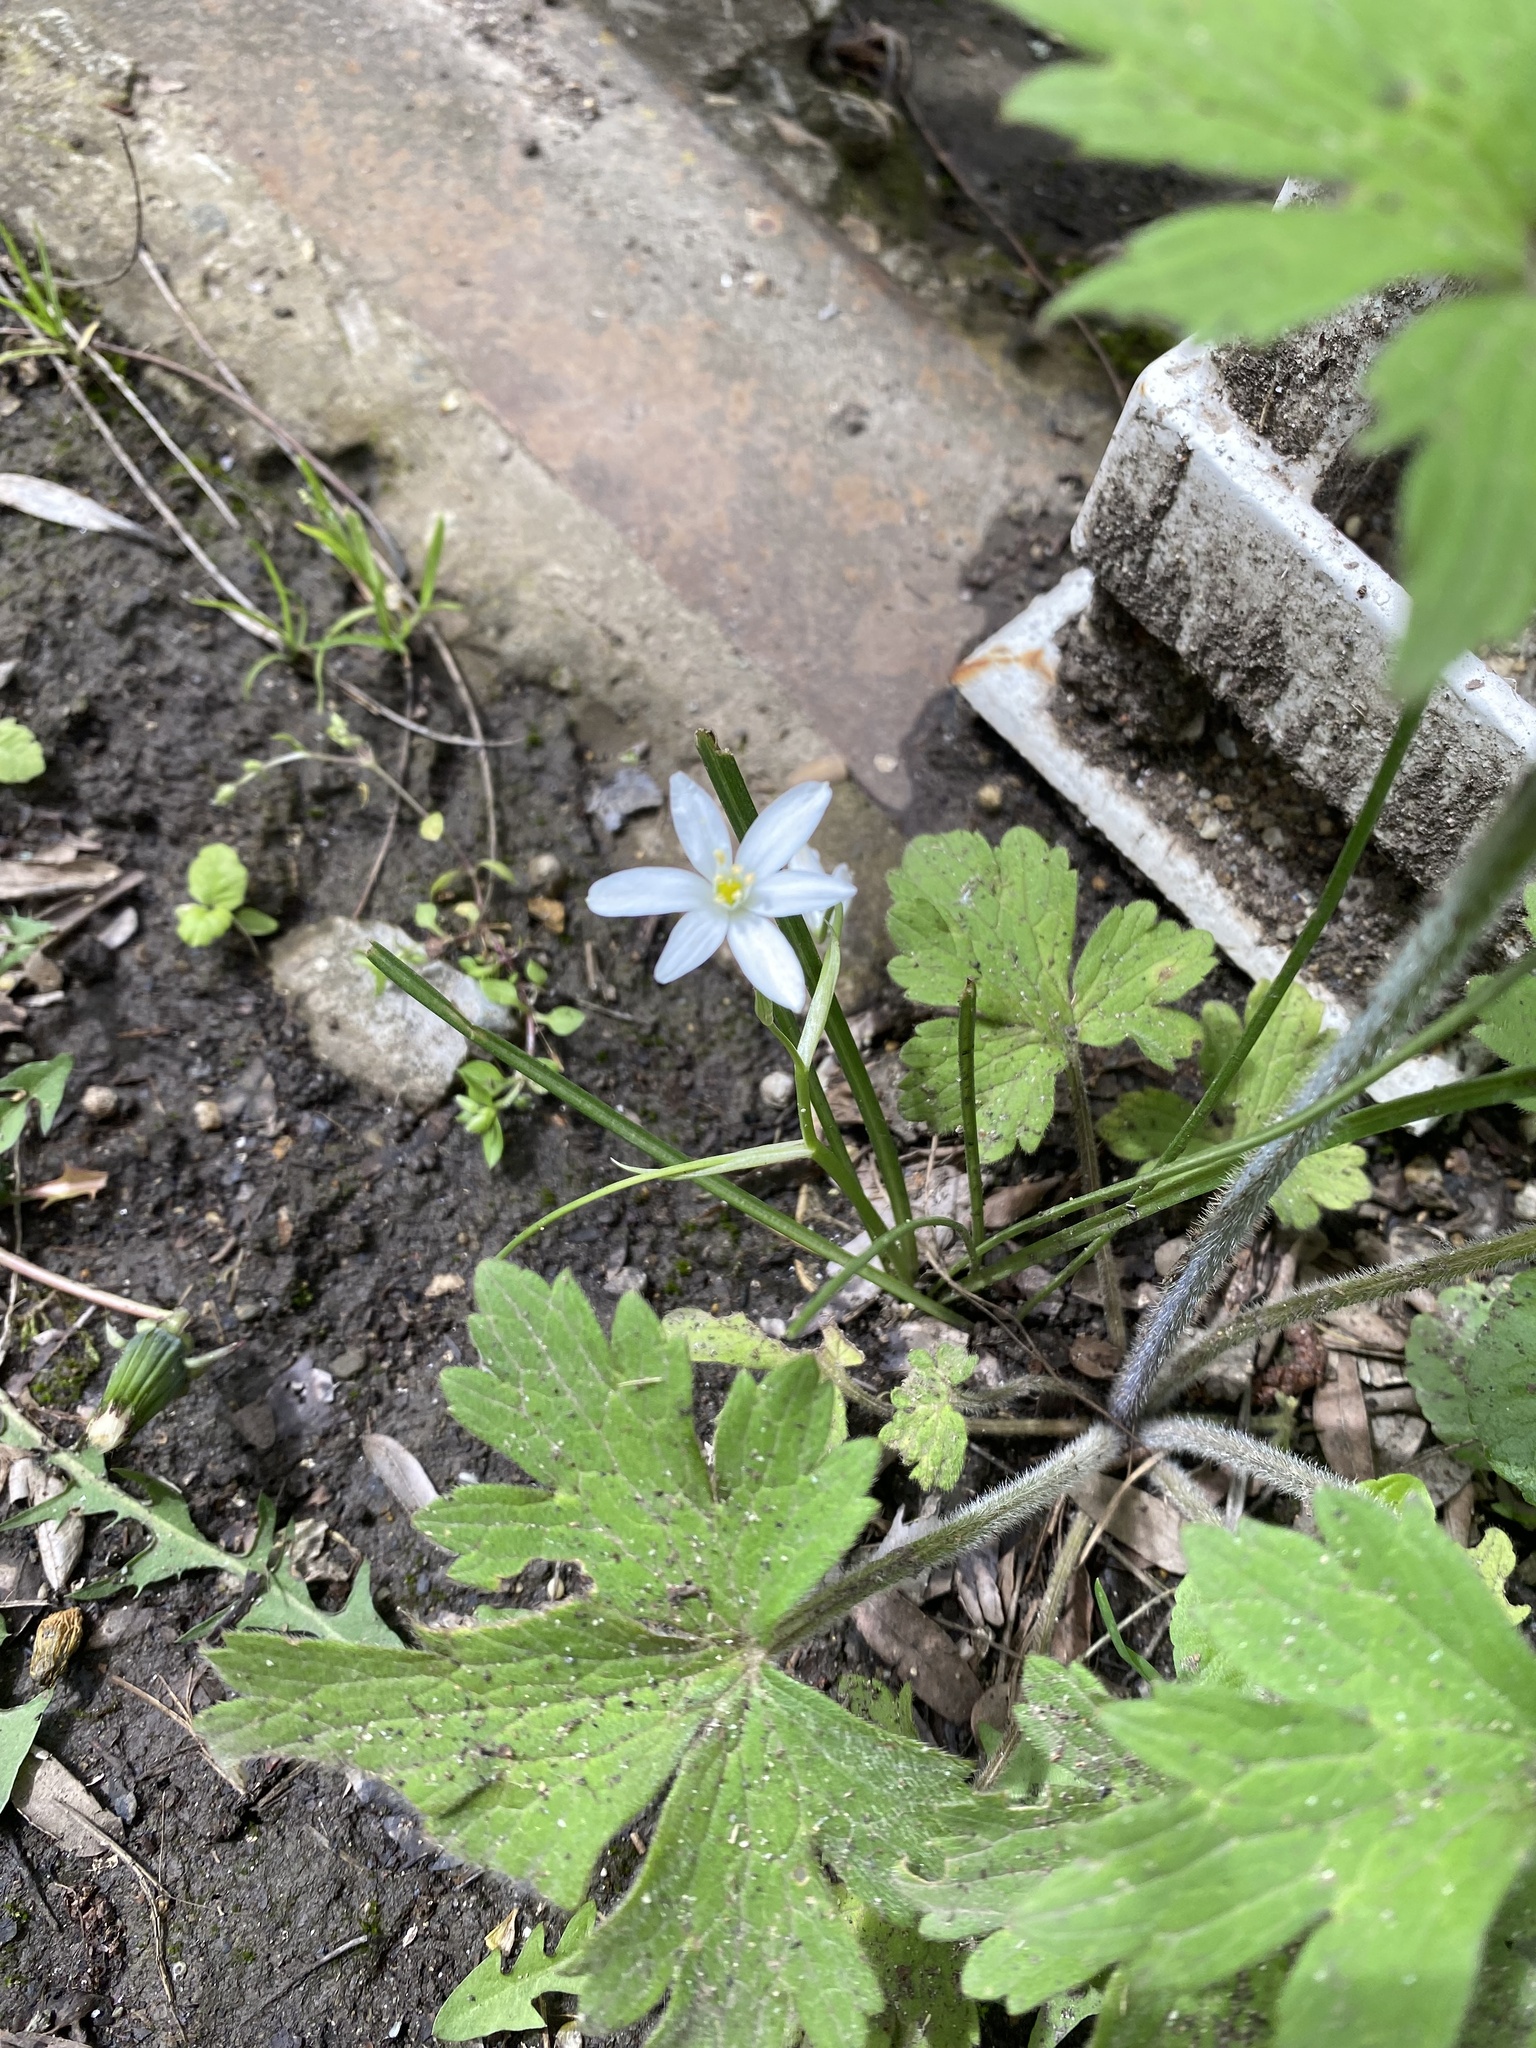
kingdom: Plantae
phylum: Tracheophyta
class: Liliopsida
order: Asparagales
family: Asparagaceae
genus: Ornithogalum
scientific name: Ornithogalum woronowii
